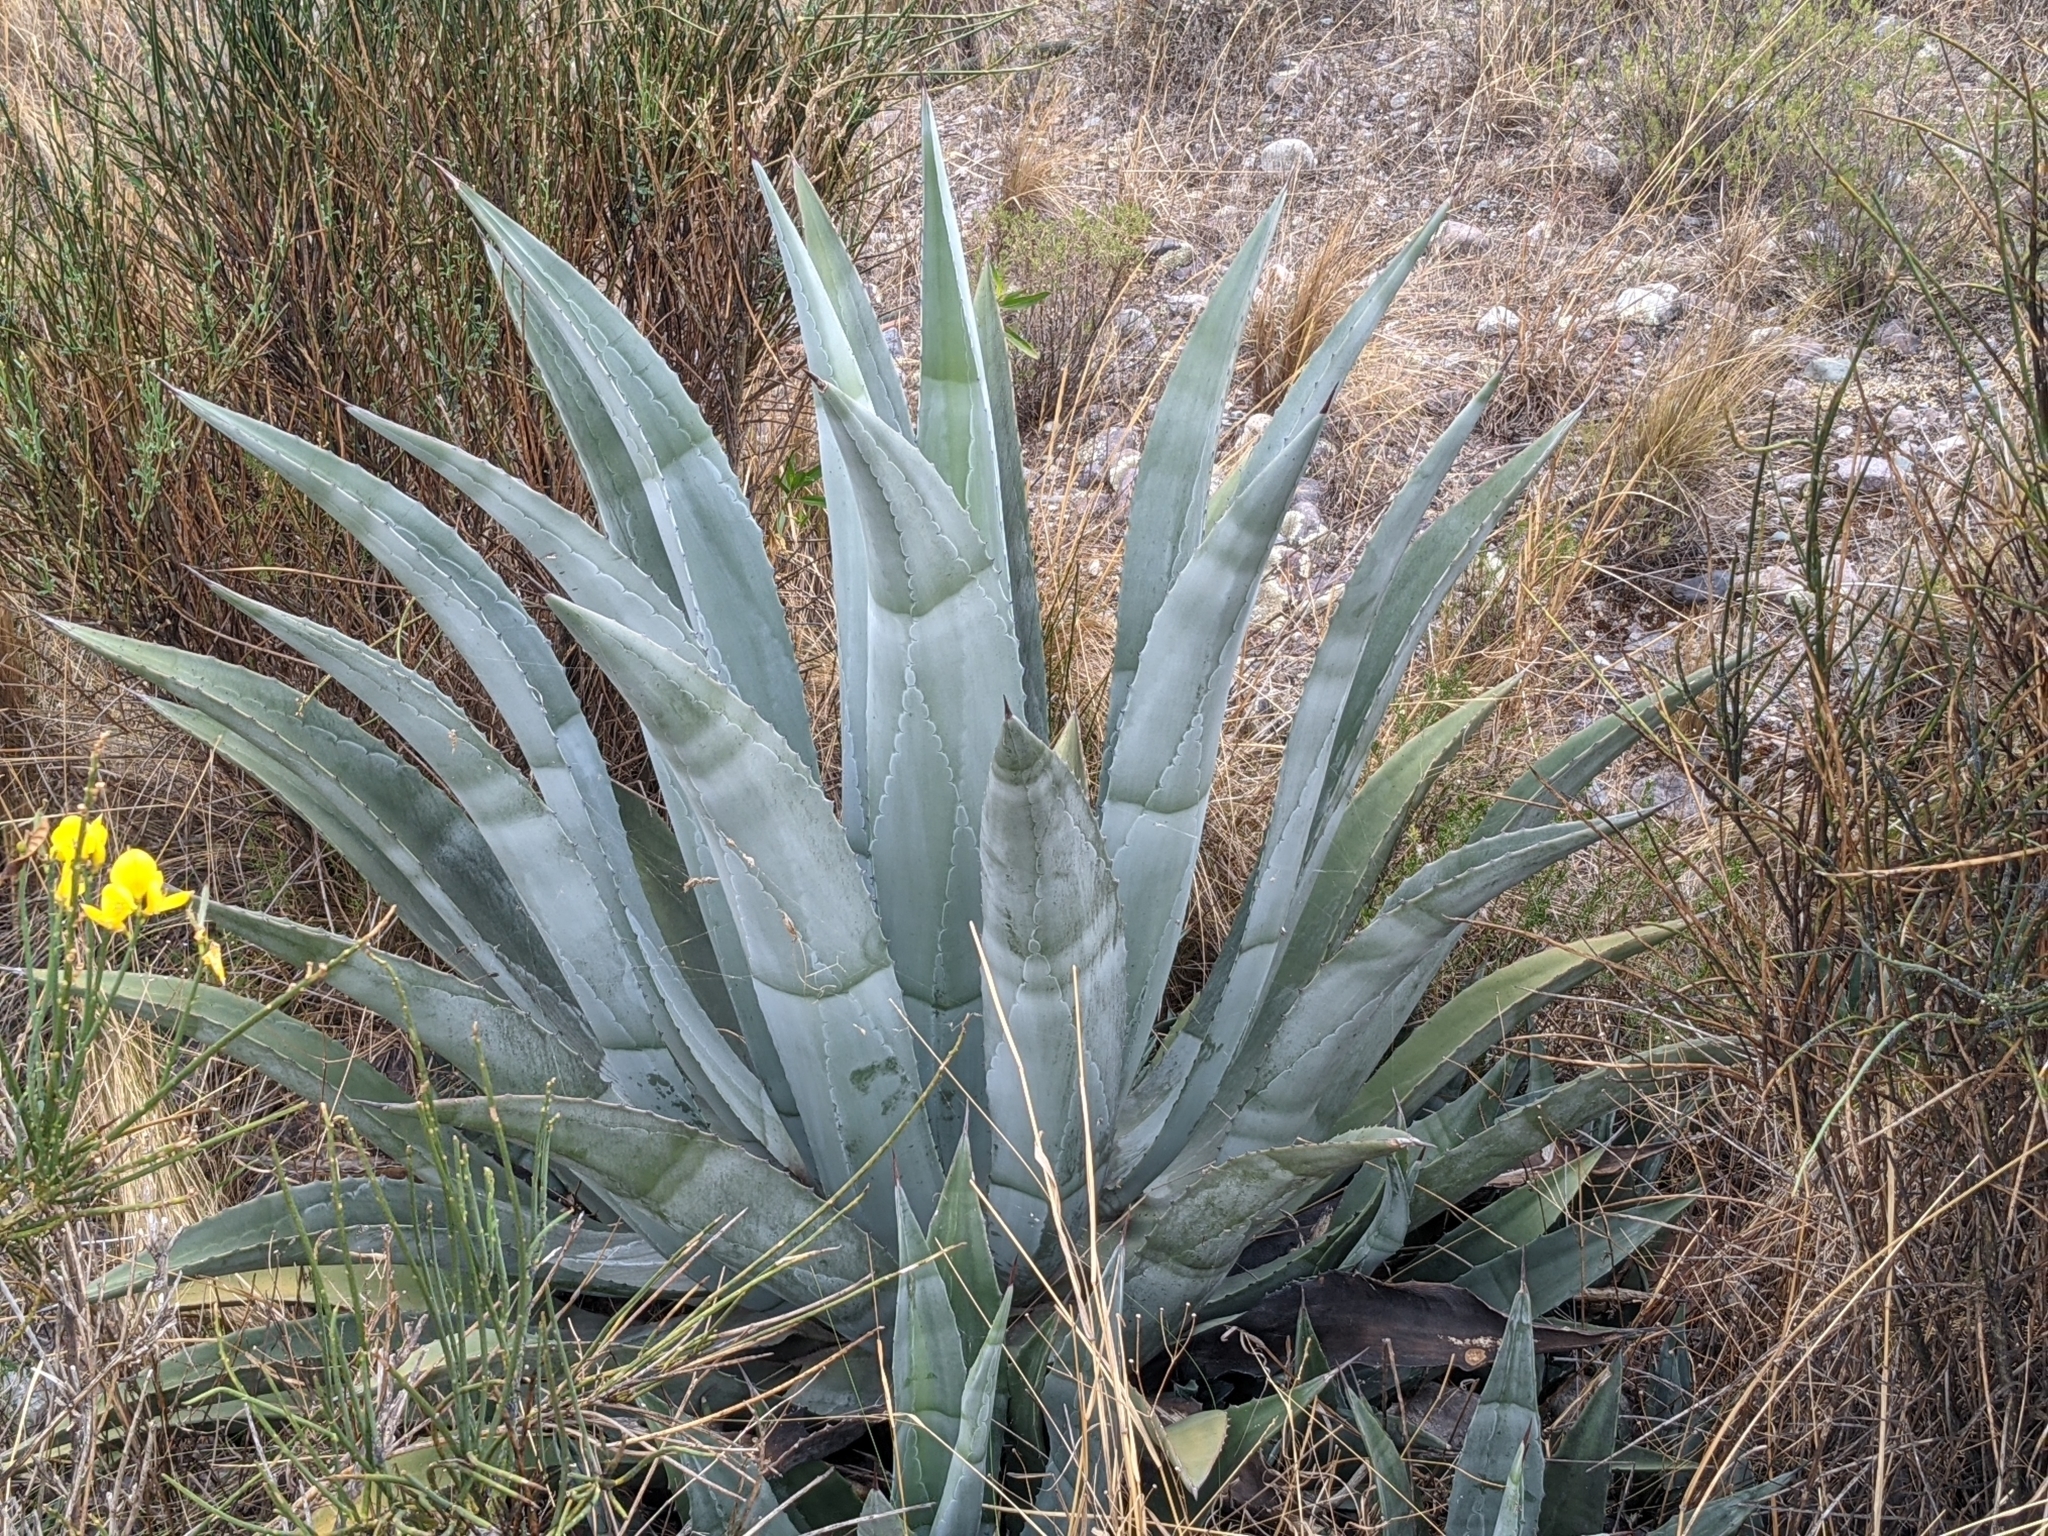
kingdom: Plantae
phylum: Tracheophyta
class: Liliopsida
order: Asparagales
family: Asparagaceae
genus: Agave
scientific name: Agave americana
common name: Centuryplant
